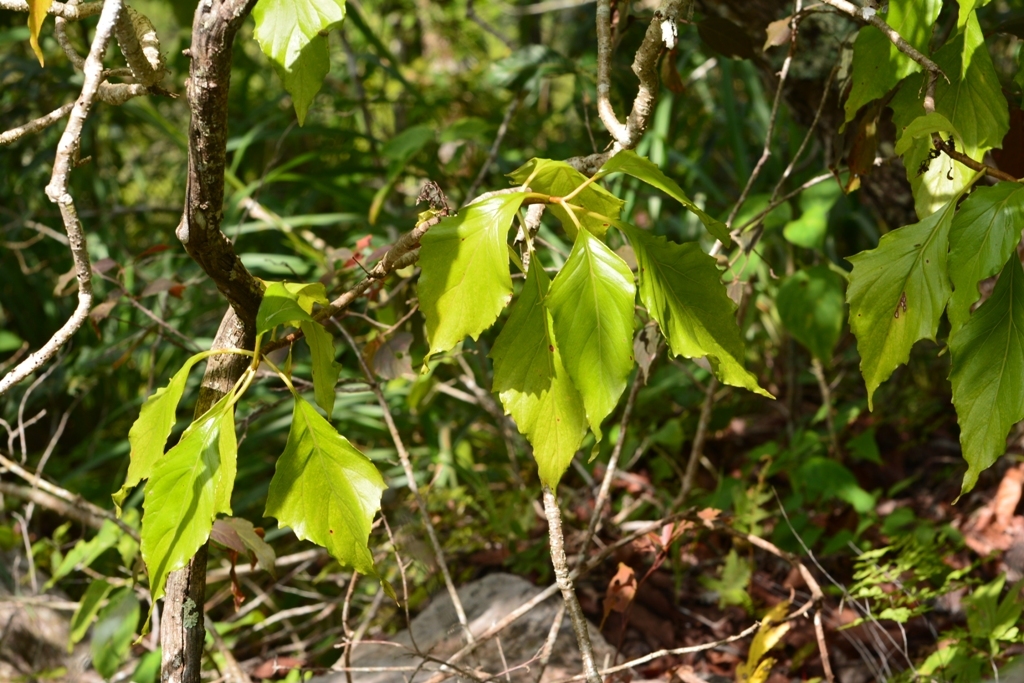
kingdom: Plantae
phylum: Tracheophyta
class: Magnoliopsida
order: Asterales
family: Asteraceae
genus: Pittocaulon
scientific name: Pittocaulon velatum
